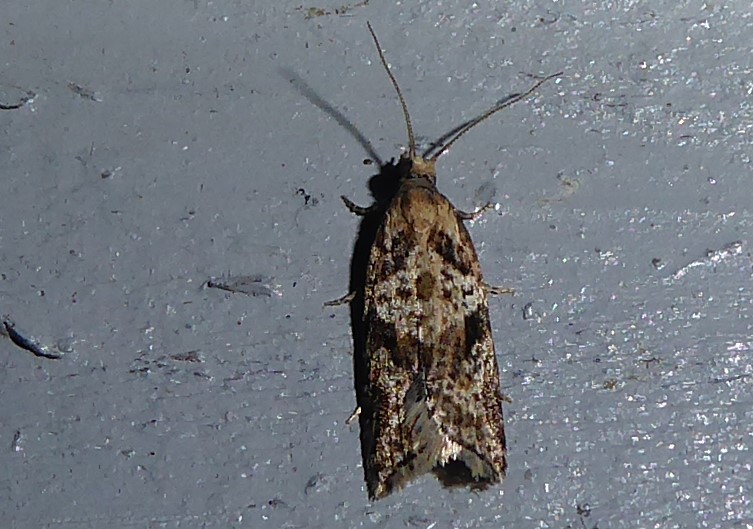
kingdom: Animalia
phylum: Arthropoda
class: Insecta
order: Lepidoptera
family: Tortricidae
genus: Capua
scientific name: Capua semiferana
